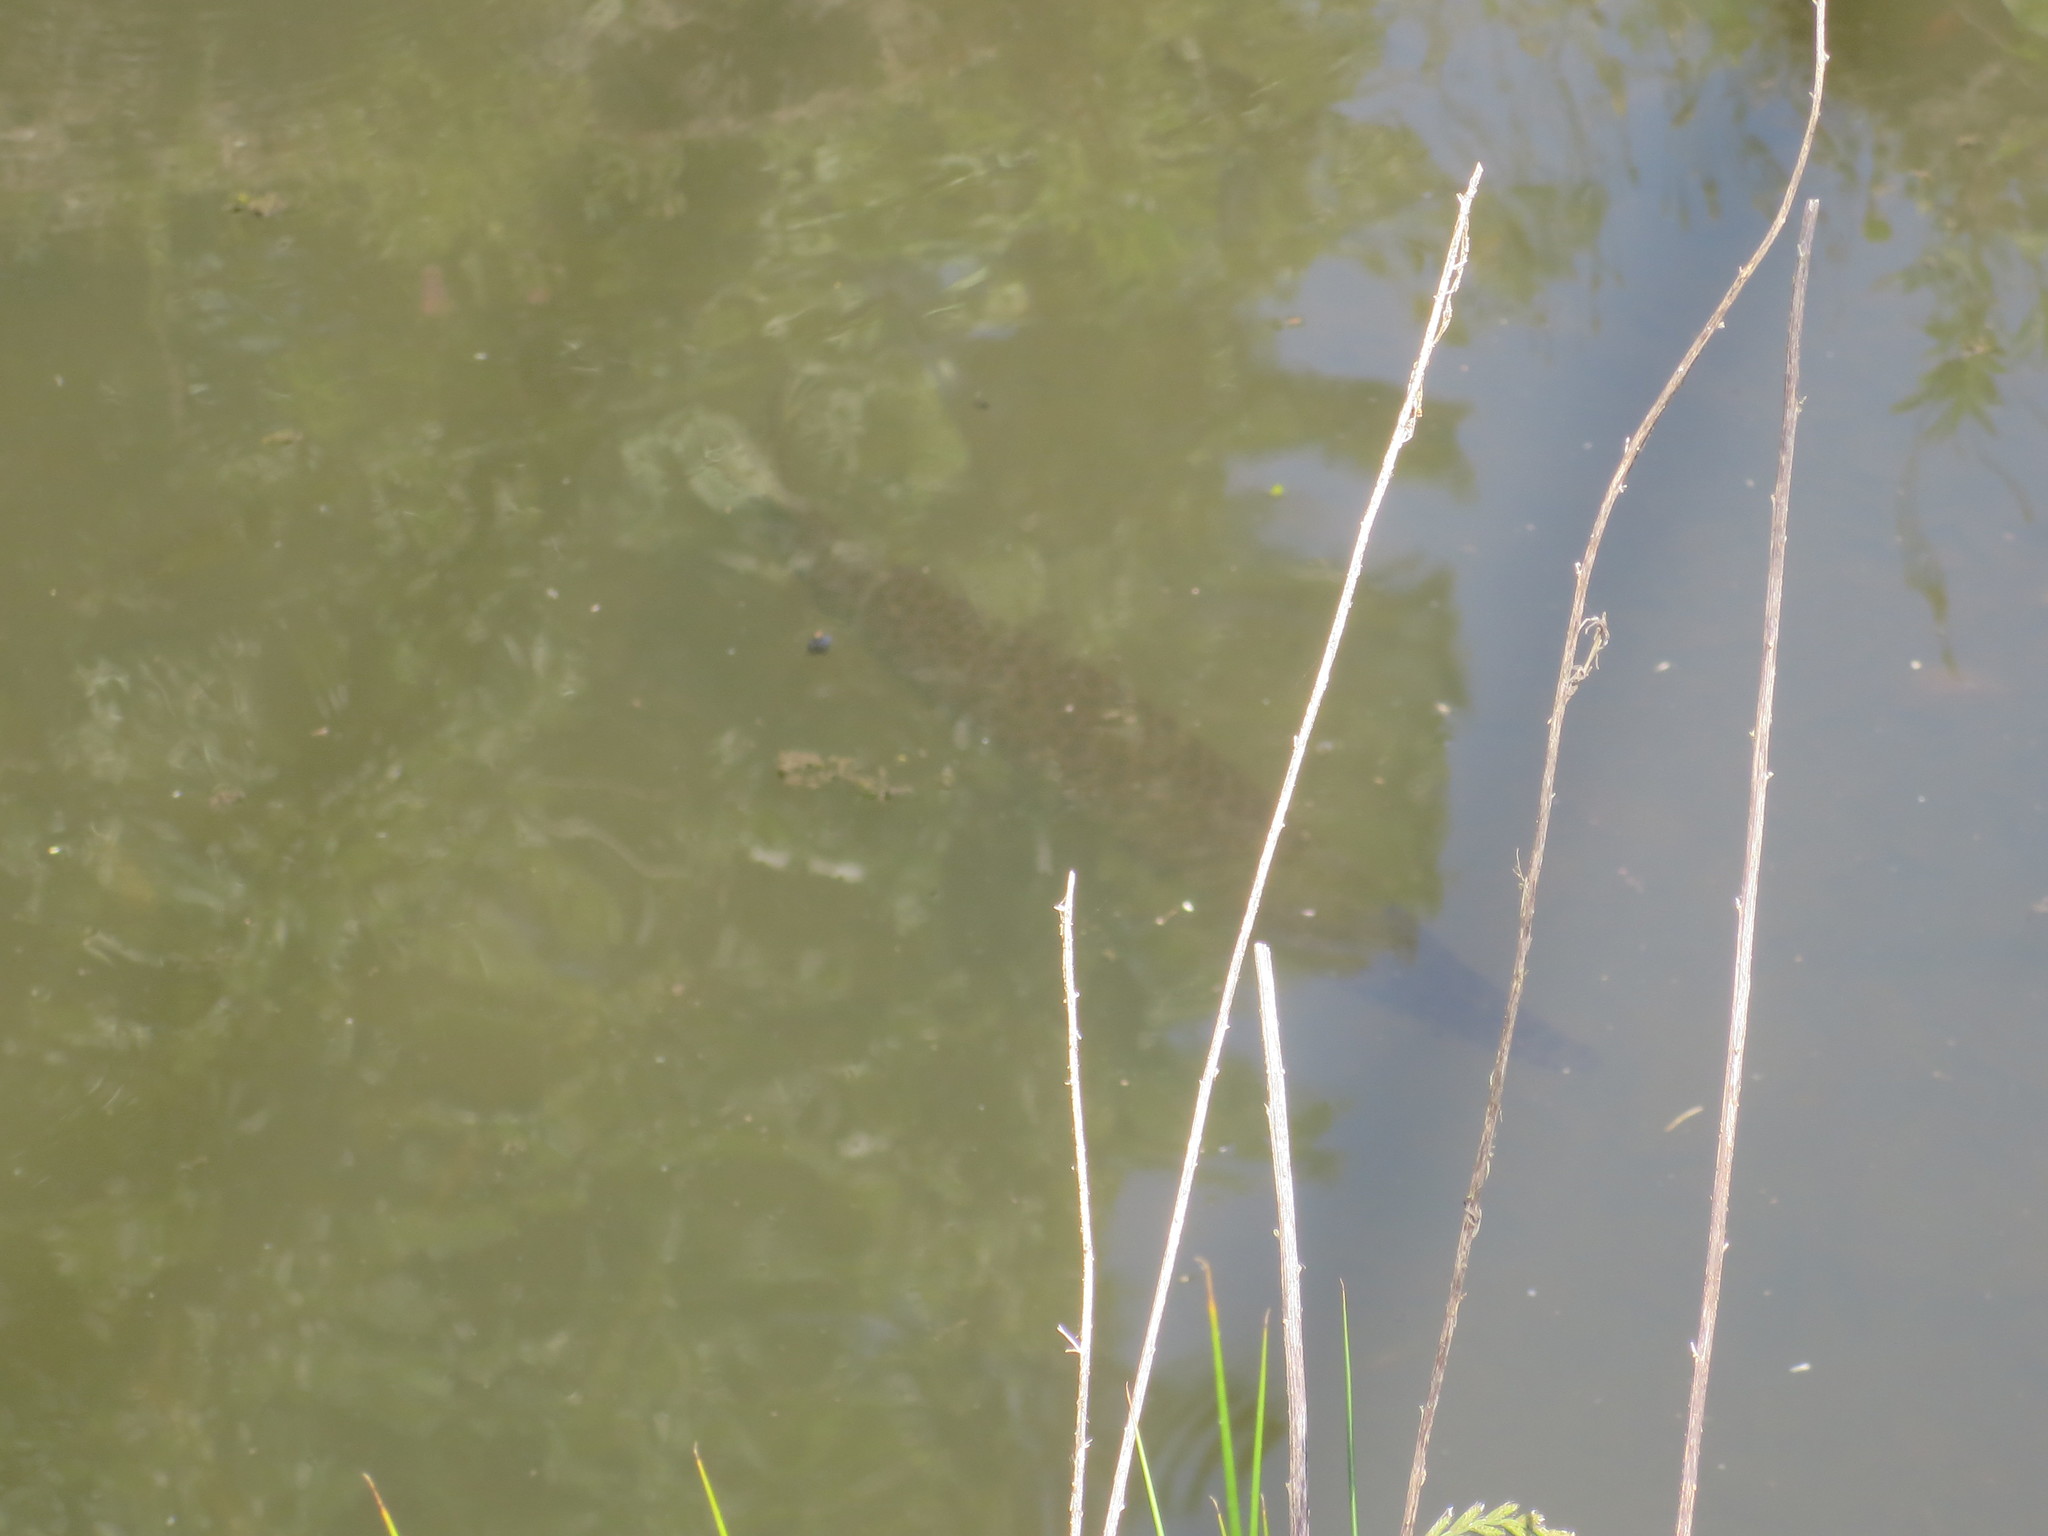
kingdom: Animalia
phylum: Chordata
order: Lepisosteiformes
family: Lepisosteidae
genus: Lepisosteus
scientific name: Lepisosteus platyrhincus
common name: Florida gar
